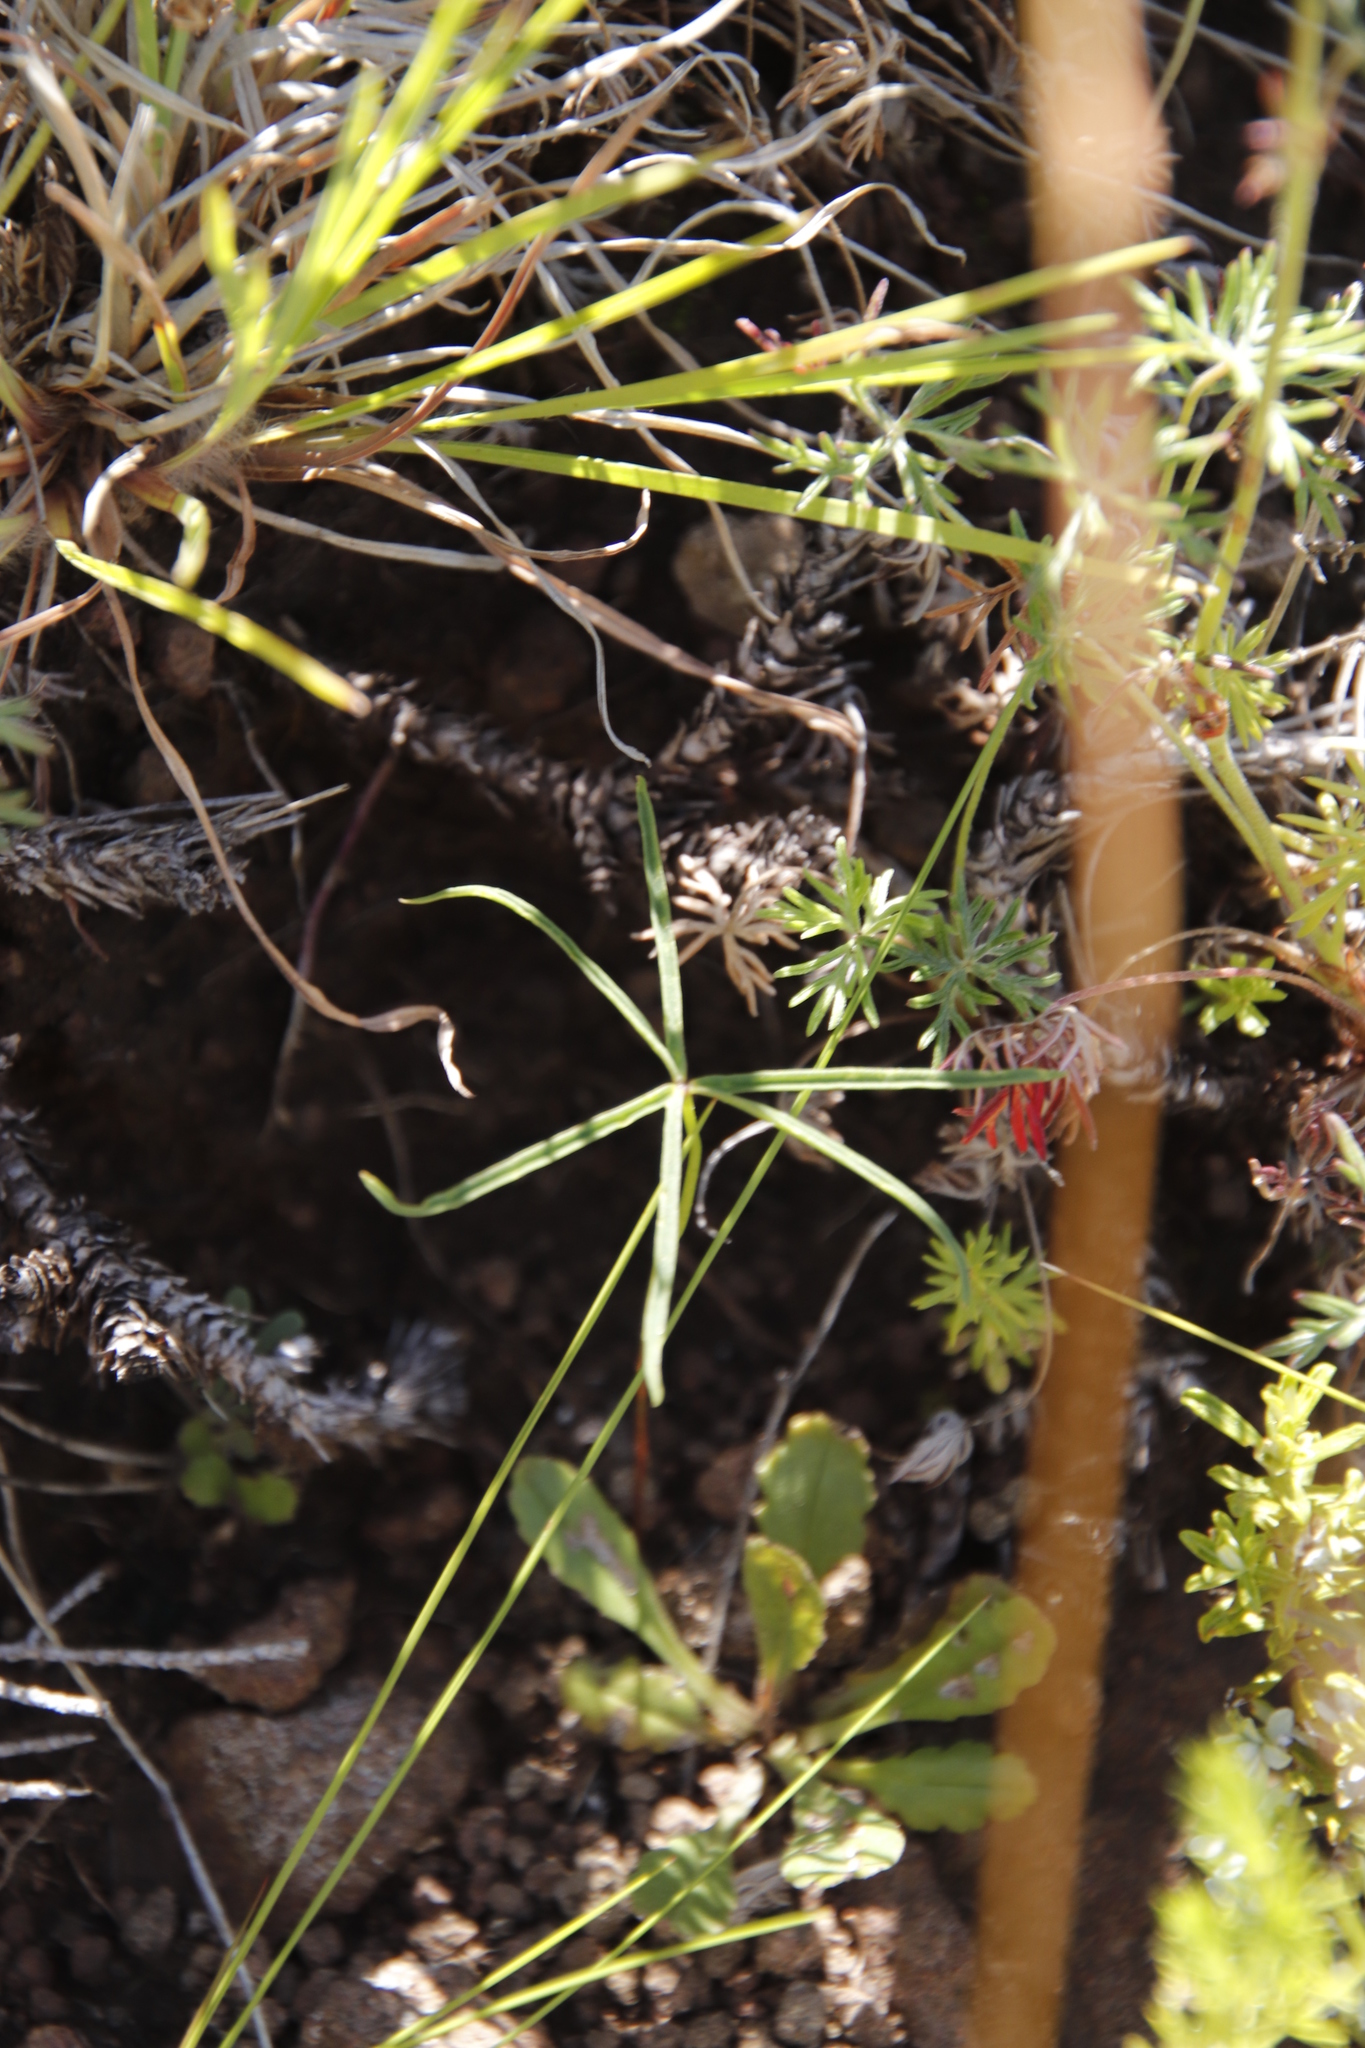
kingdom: Plantae
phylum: Tracheophyta
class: Magnoliopsida
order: Oxalidales
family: Oxalidaceae
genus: Oxalis
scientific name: Oxalis smithiana
